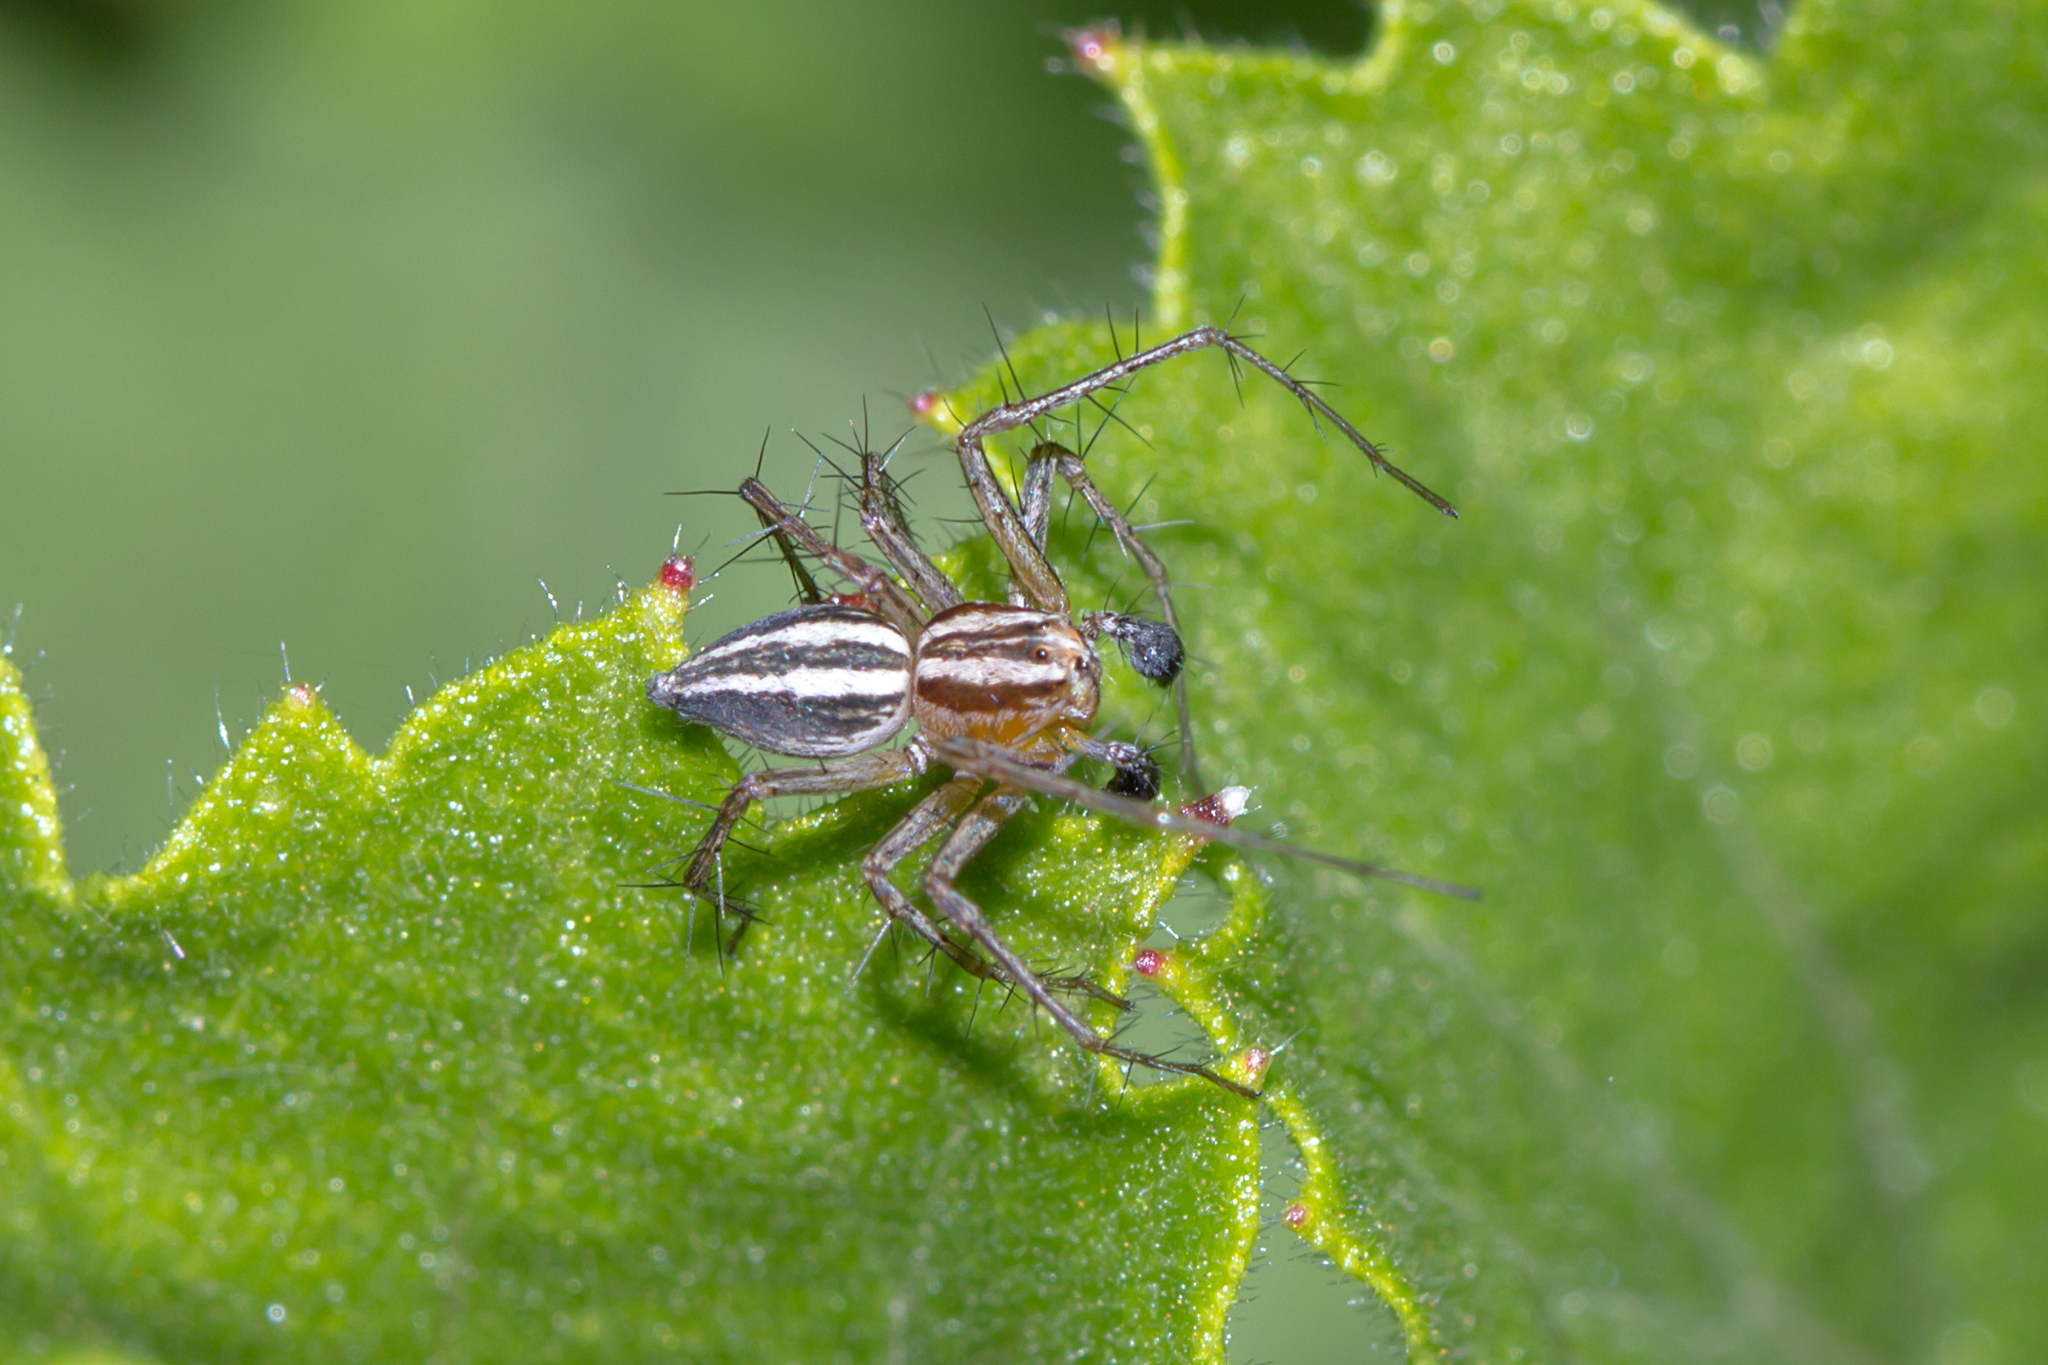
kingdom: Animalia
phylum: Arthropoda
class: Arachnida
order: Araneae
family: Oxyopidae
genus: Oxyopes
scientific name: Oxyopes gracilipes
